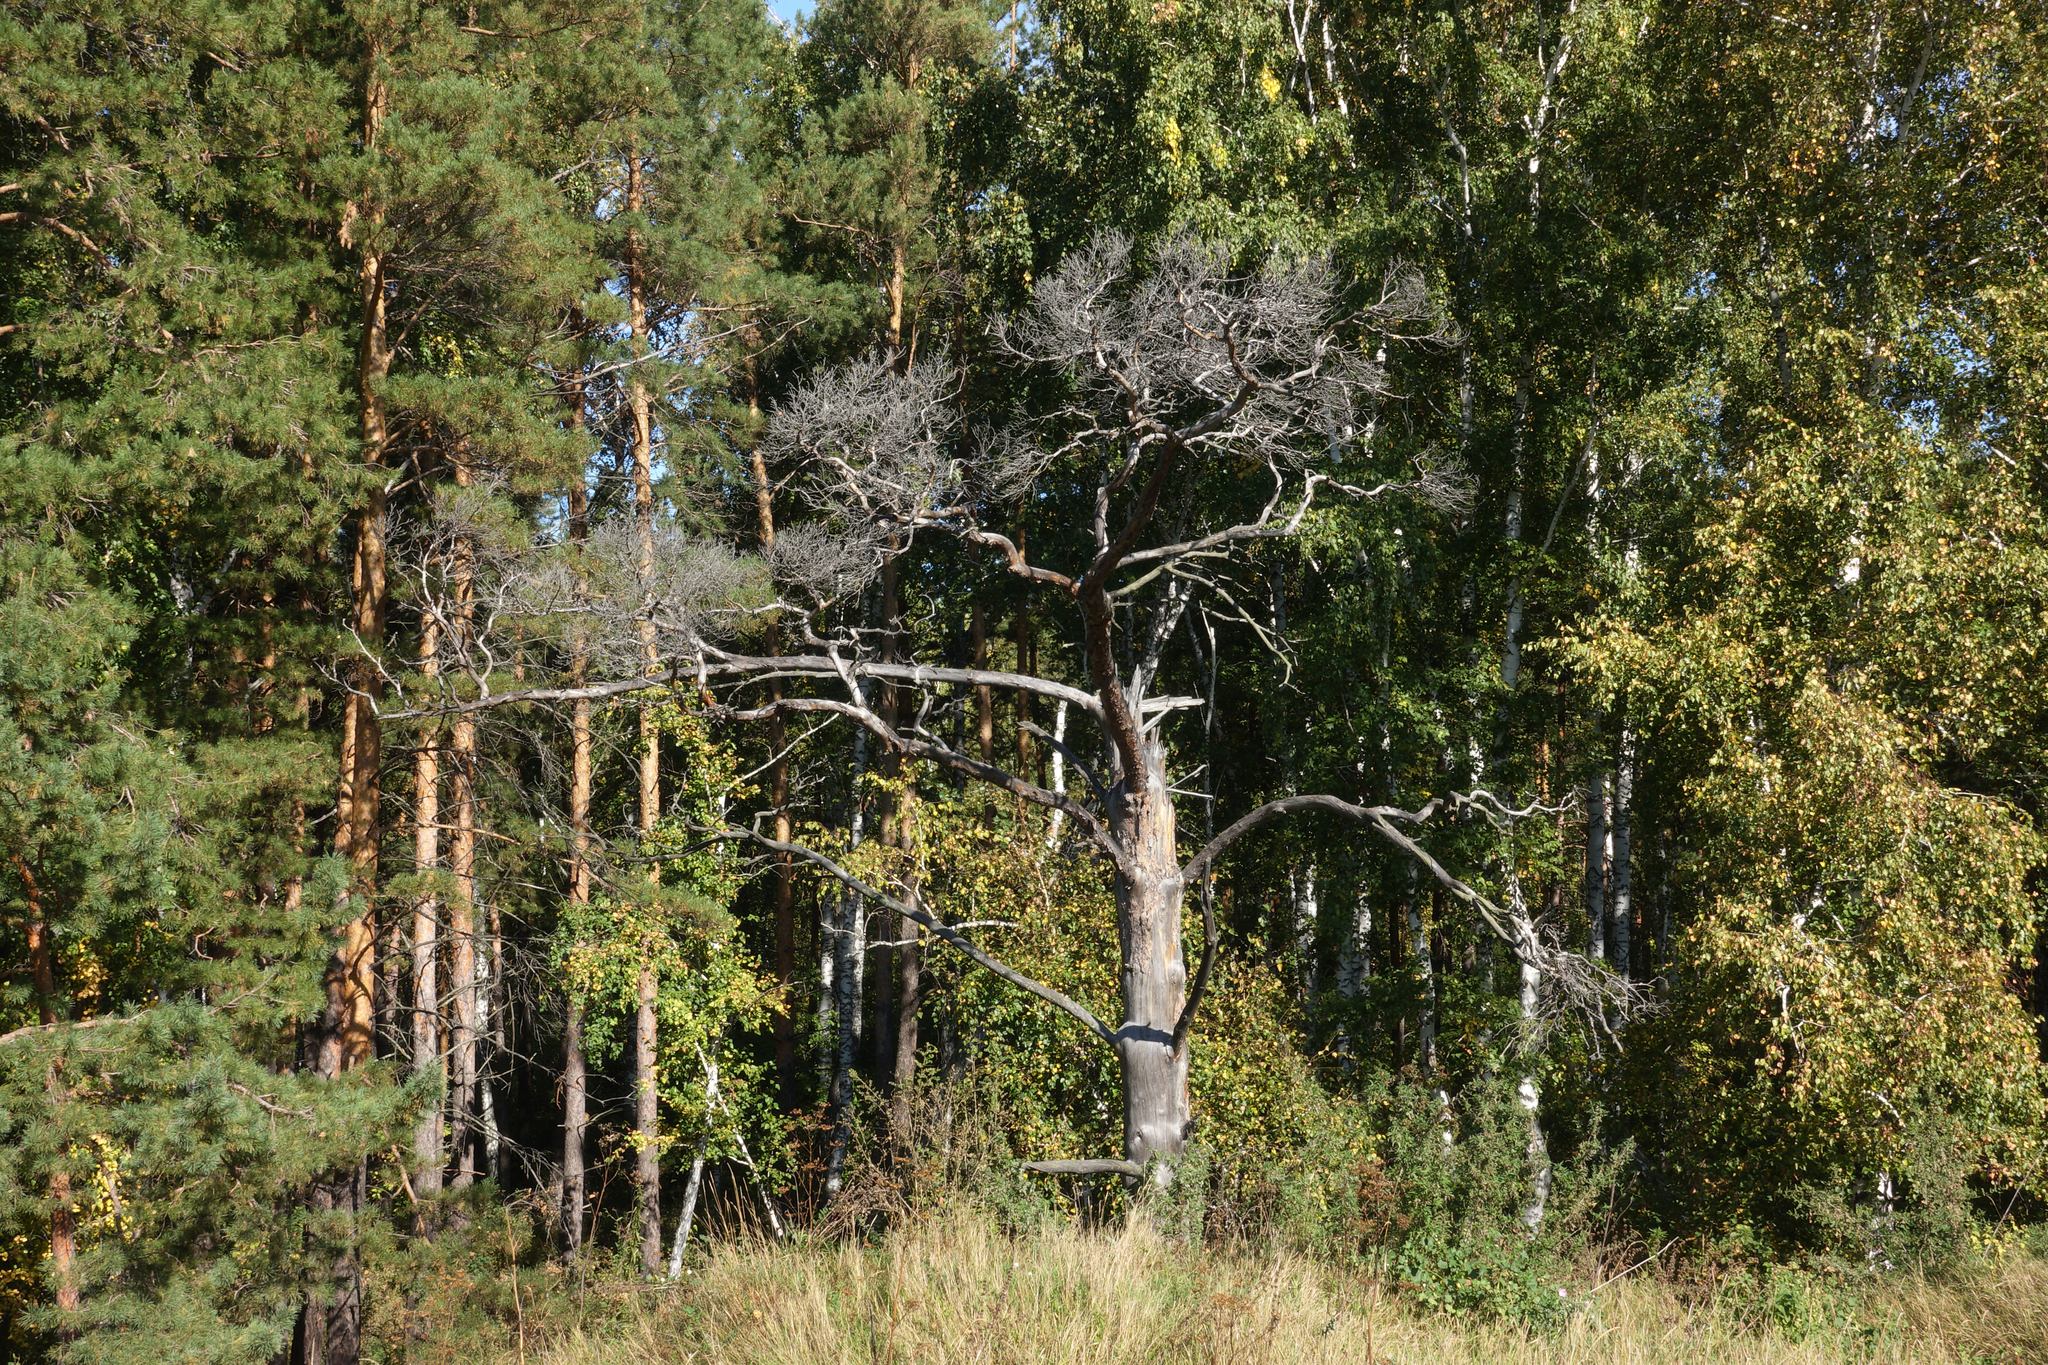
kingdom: Plantae
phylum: Tracheophyta
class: Pinopsida
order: Pinales
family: Pinaceae
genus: Pinus
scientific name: Pinus sylvestris
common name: Scots pine
